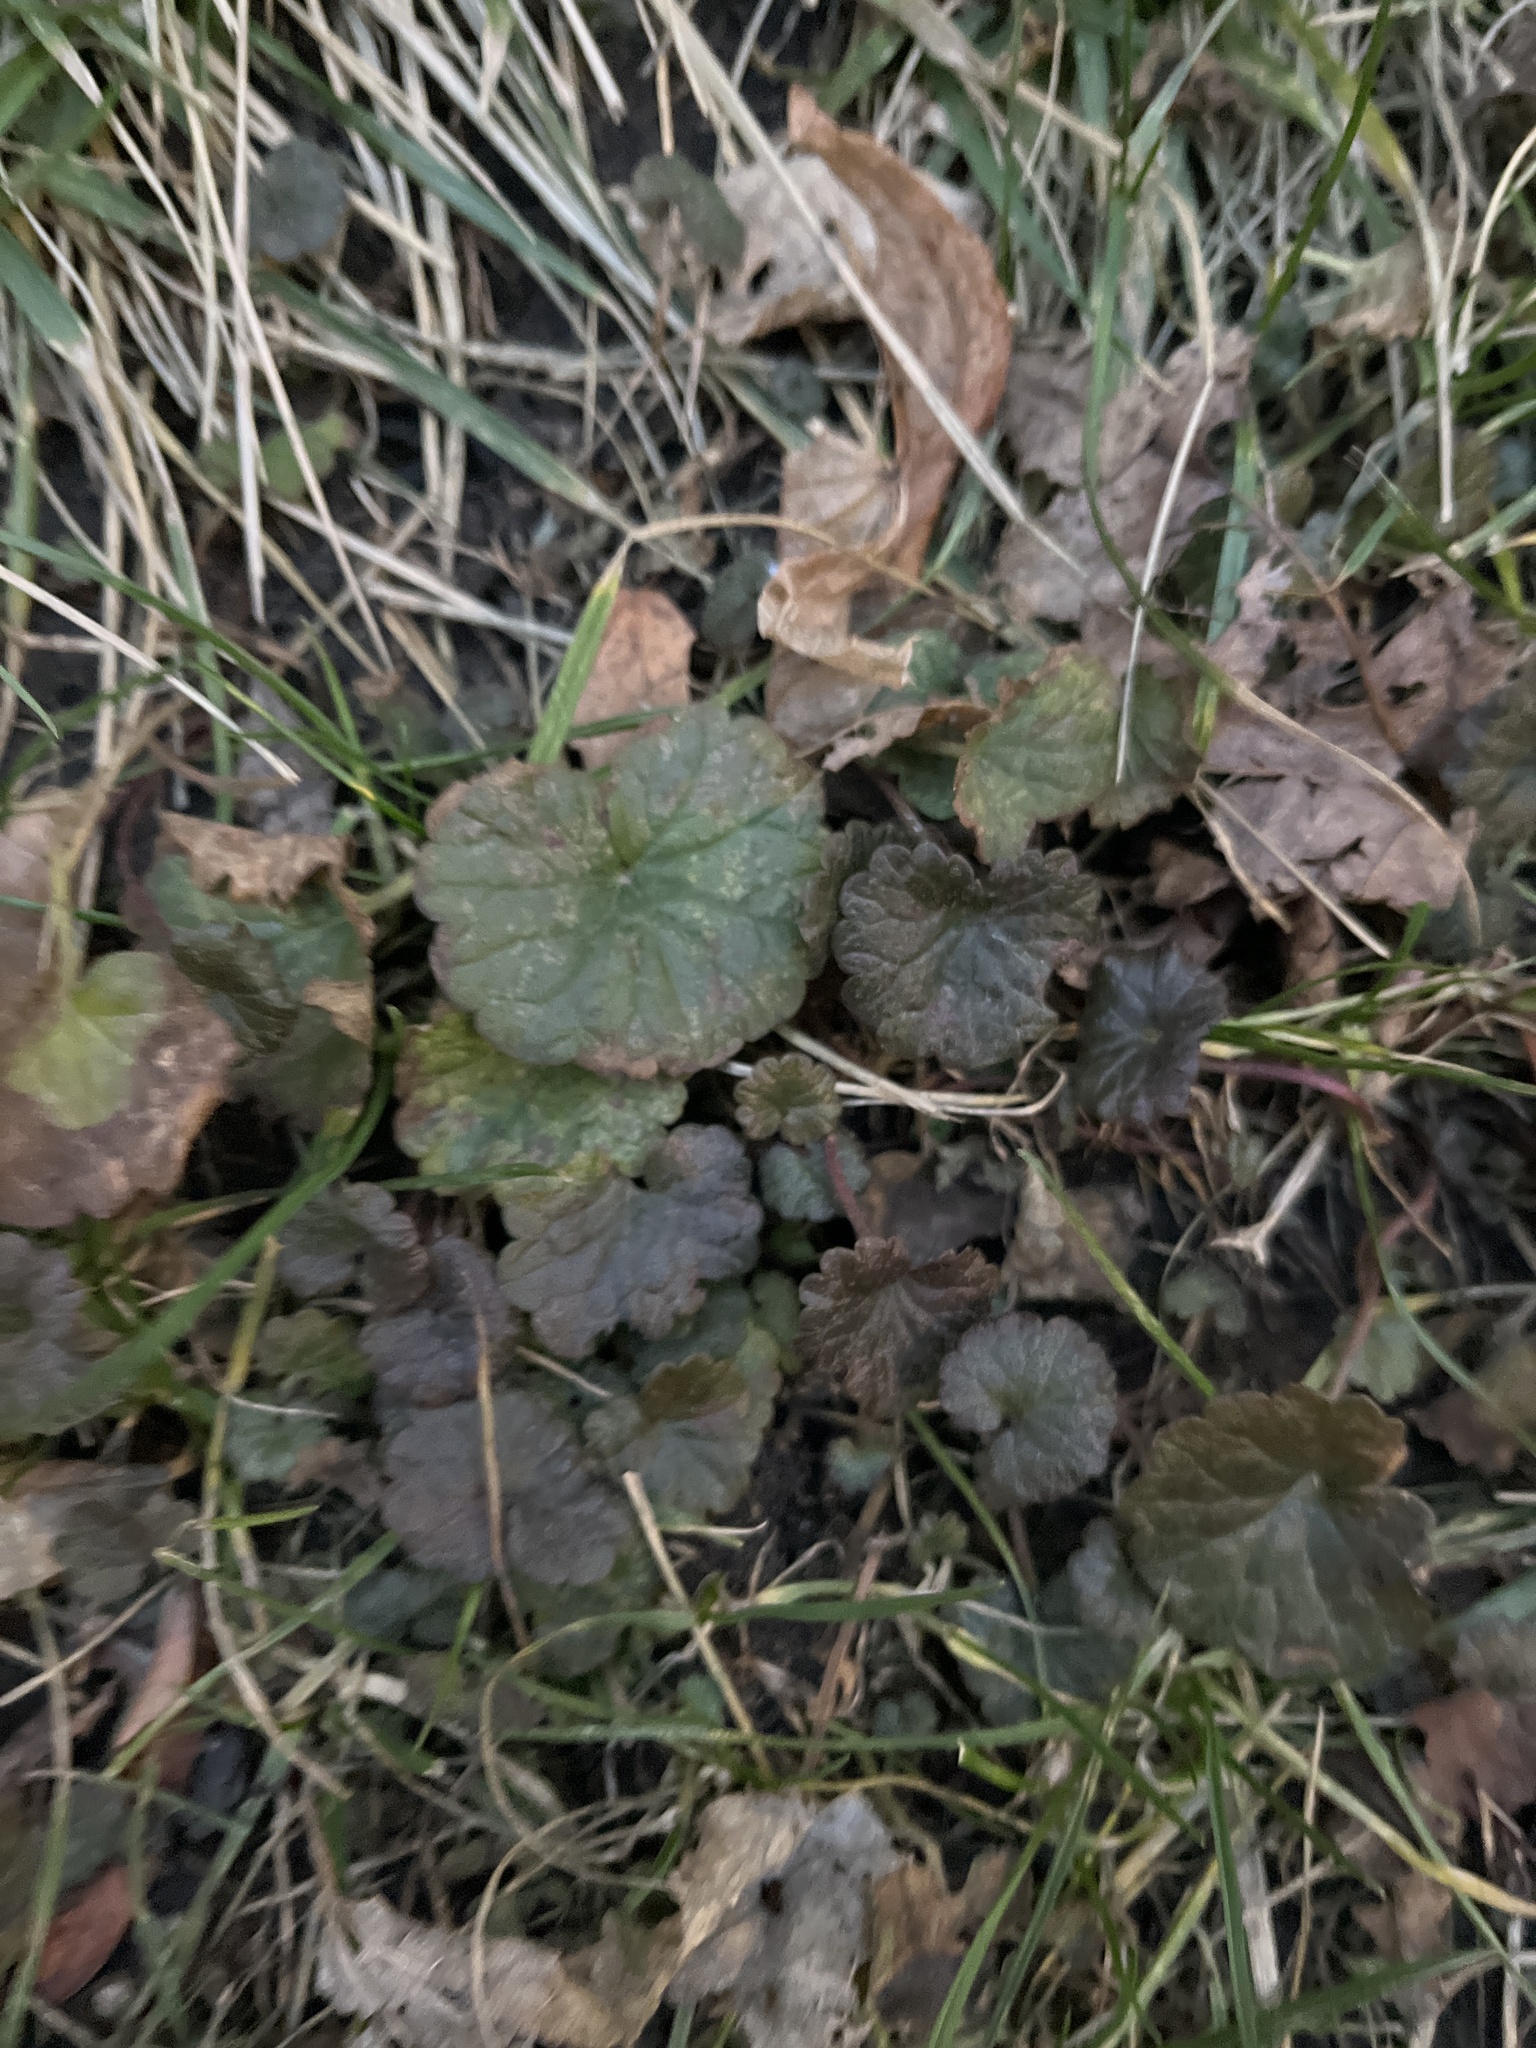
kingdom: Plantae
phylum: Tracheophyta
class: Magnoliopsida
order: Lamiales
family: Lamiaceae
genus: Glechoma
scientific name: Glechoma hederacea
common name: Ground ivy
